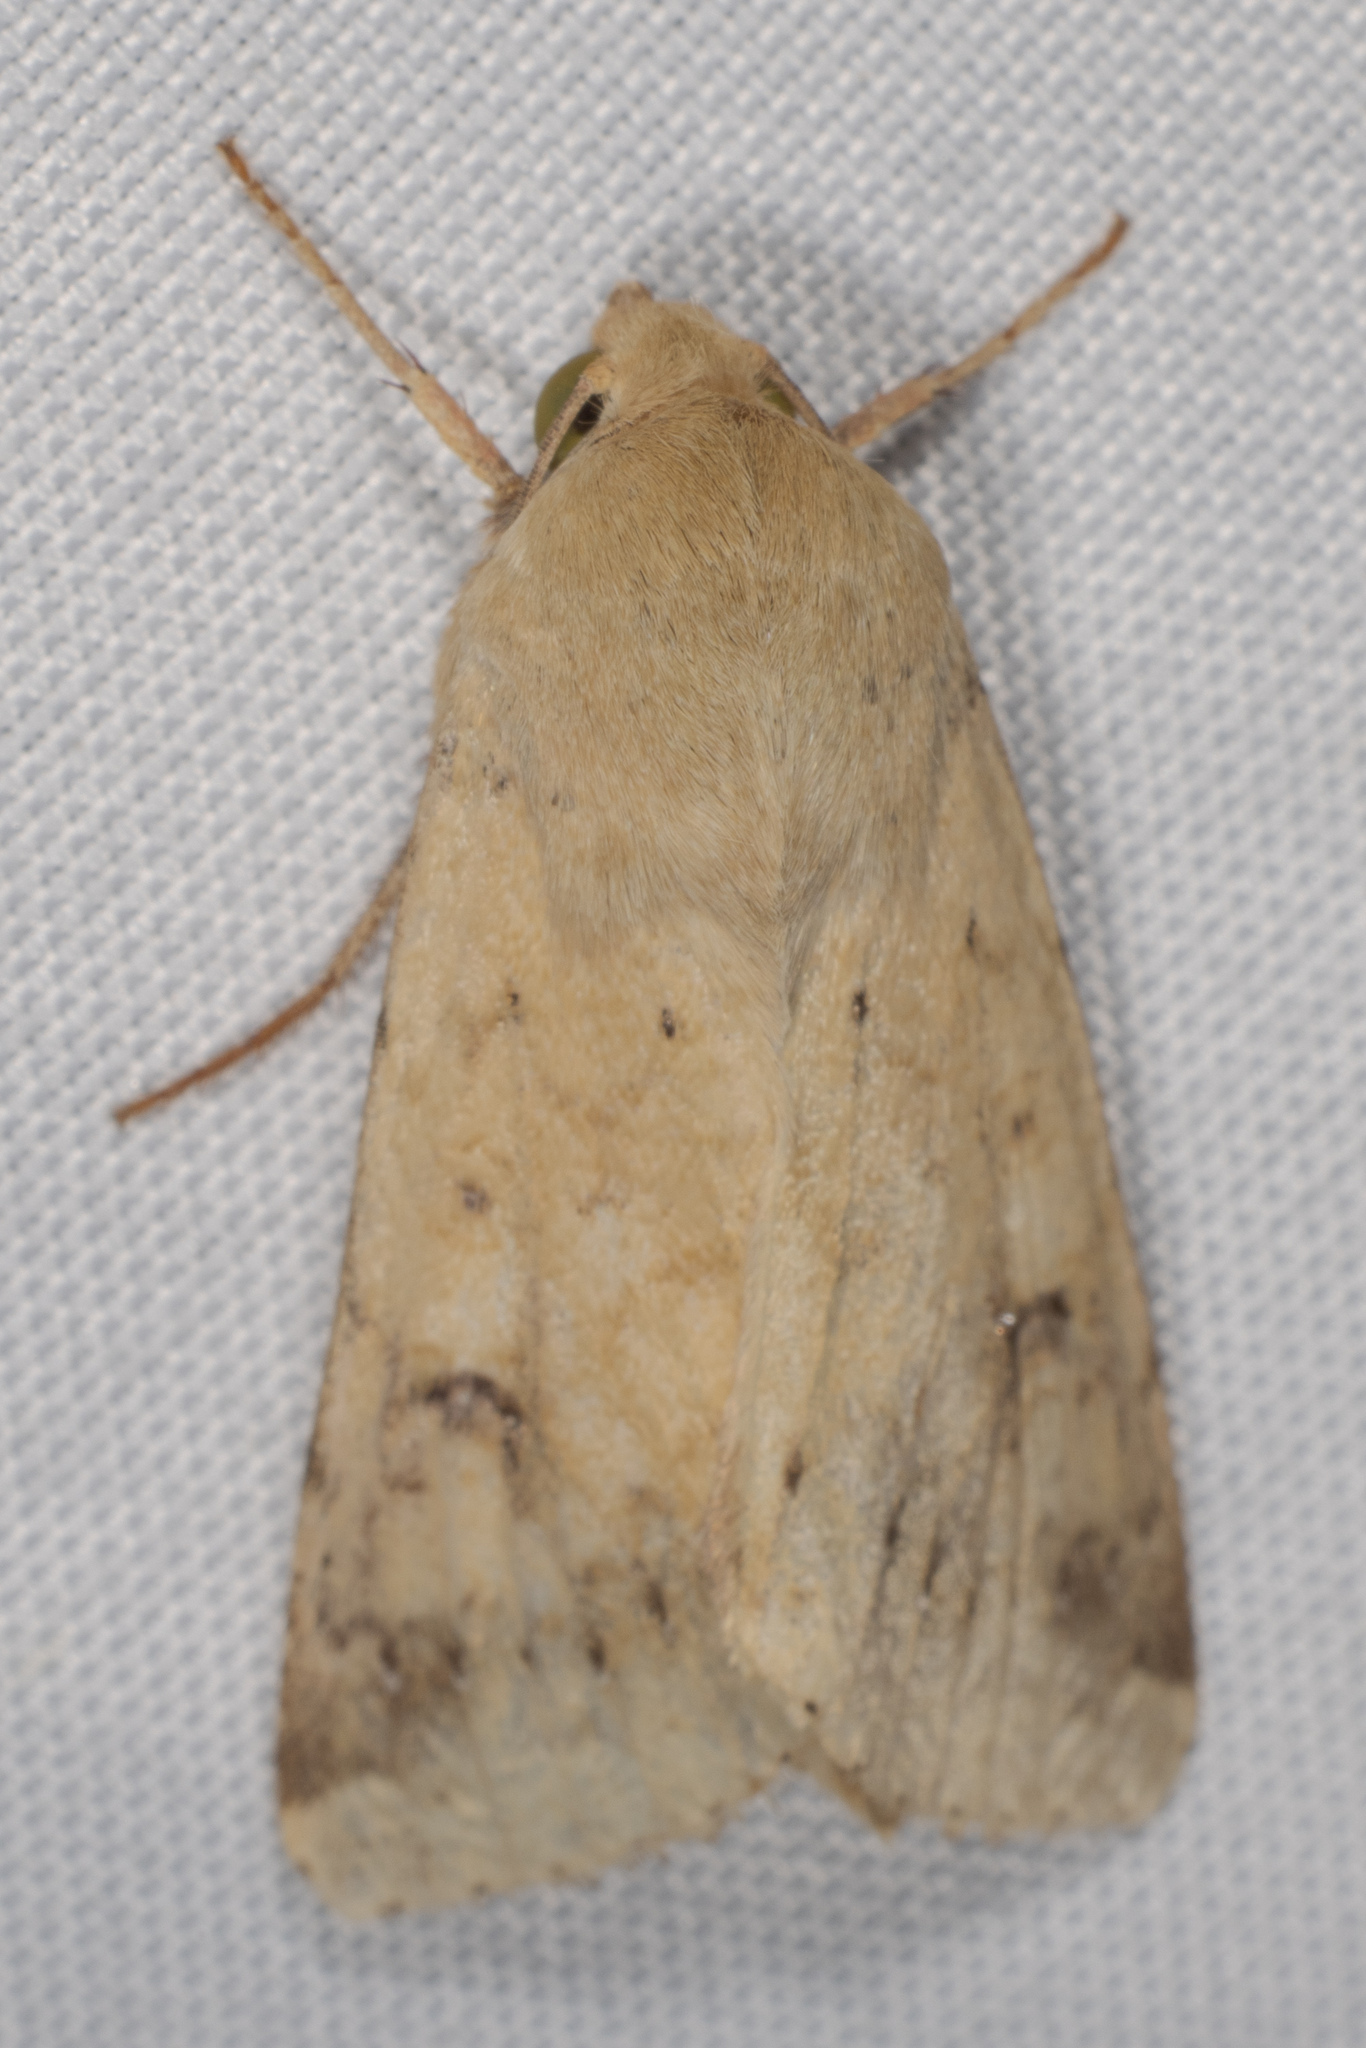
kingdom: Animalia
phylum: Arthropoda
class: Insecta
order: Lepidoptera
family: Noctuidae
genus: Helicoverpa
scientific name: Helicoverpa zea
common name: Bollworm
